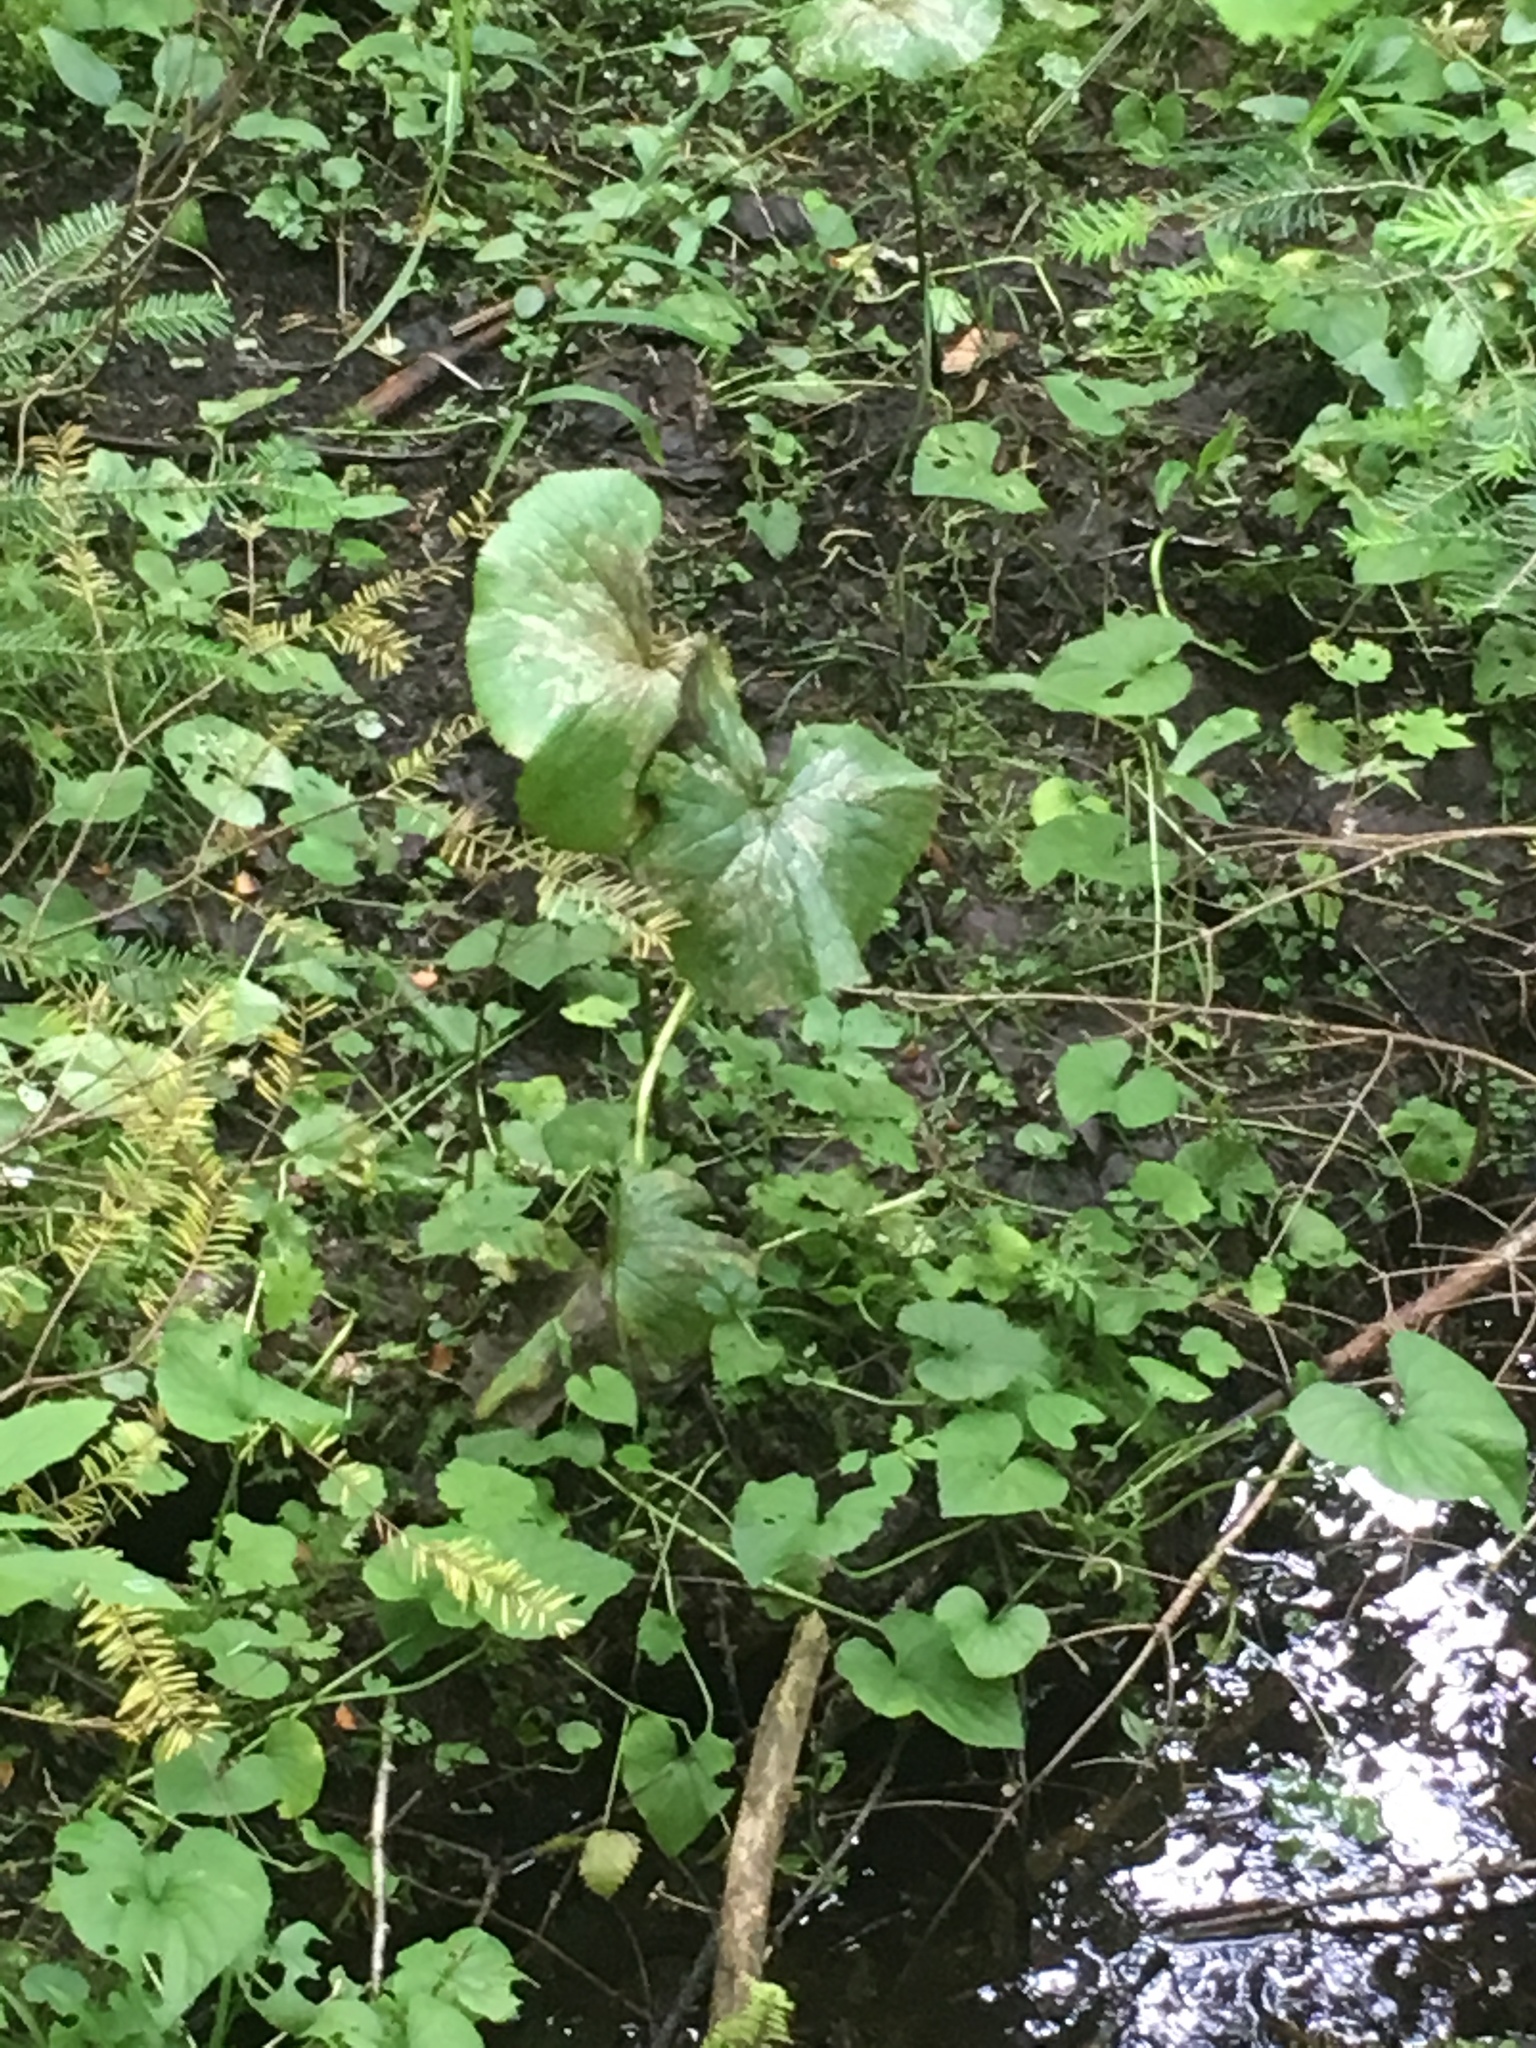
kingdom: Plantae
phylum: Tracheophyta
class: Magnoliopsida
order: Ranunculales
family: Ranunculaceae
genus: Caltha
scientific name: Caltha palustris
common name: Marsh marigold
